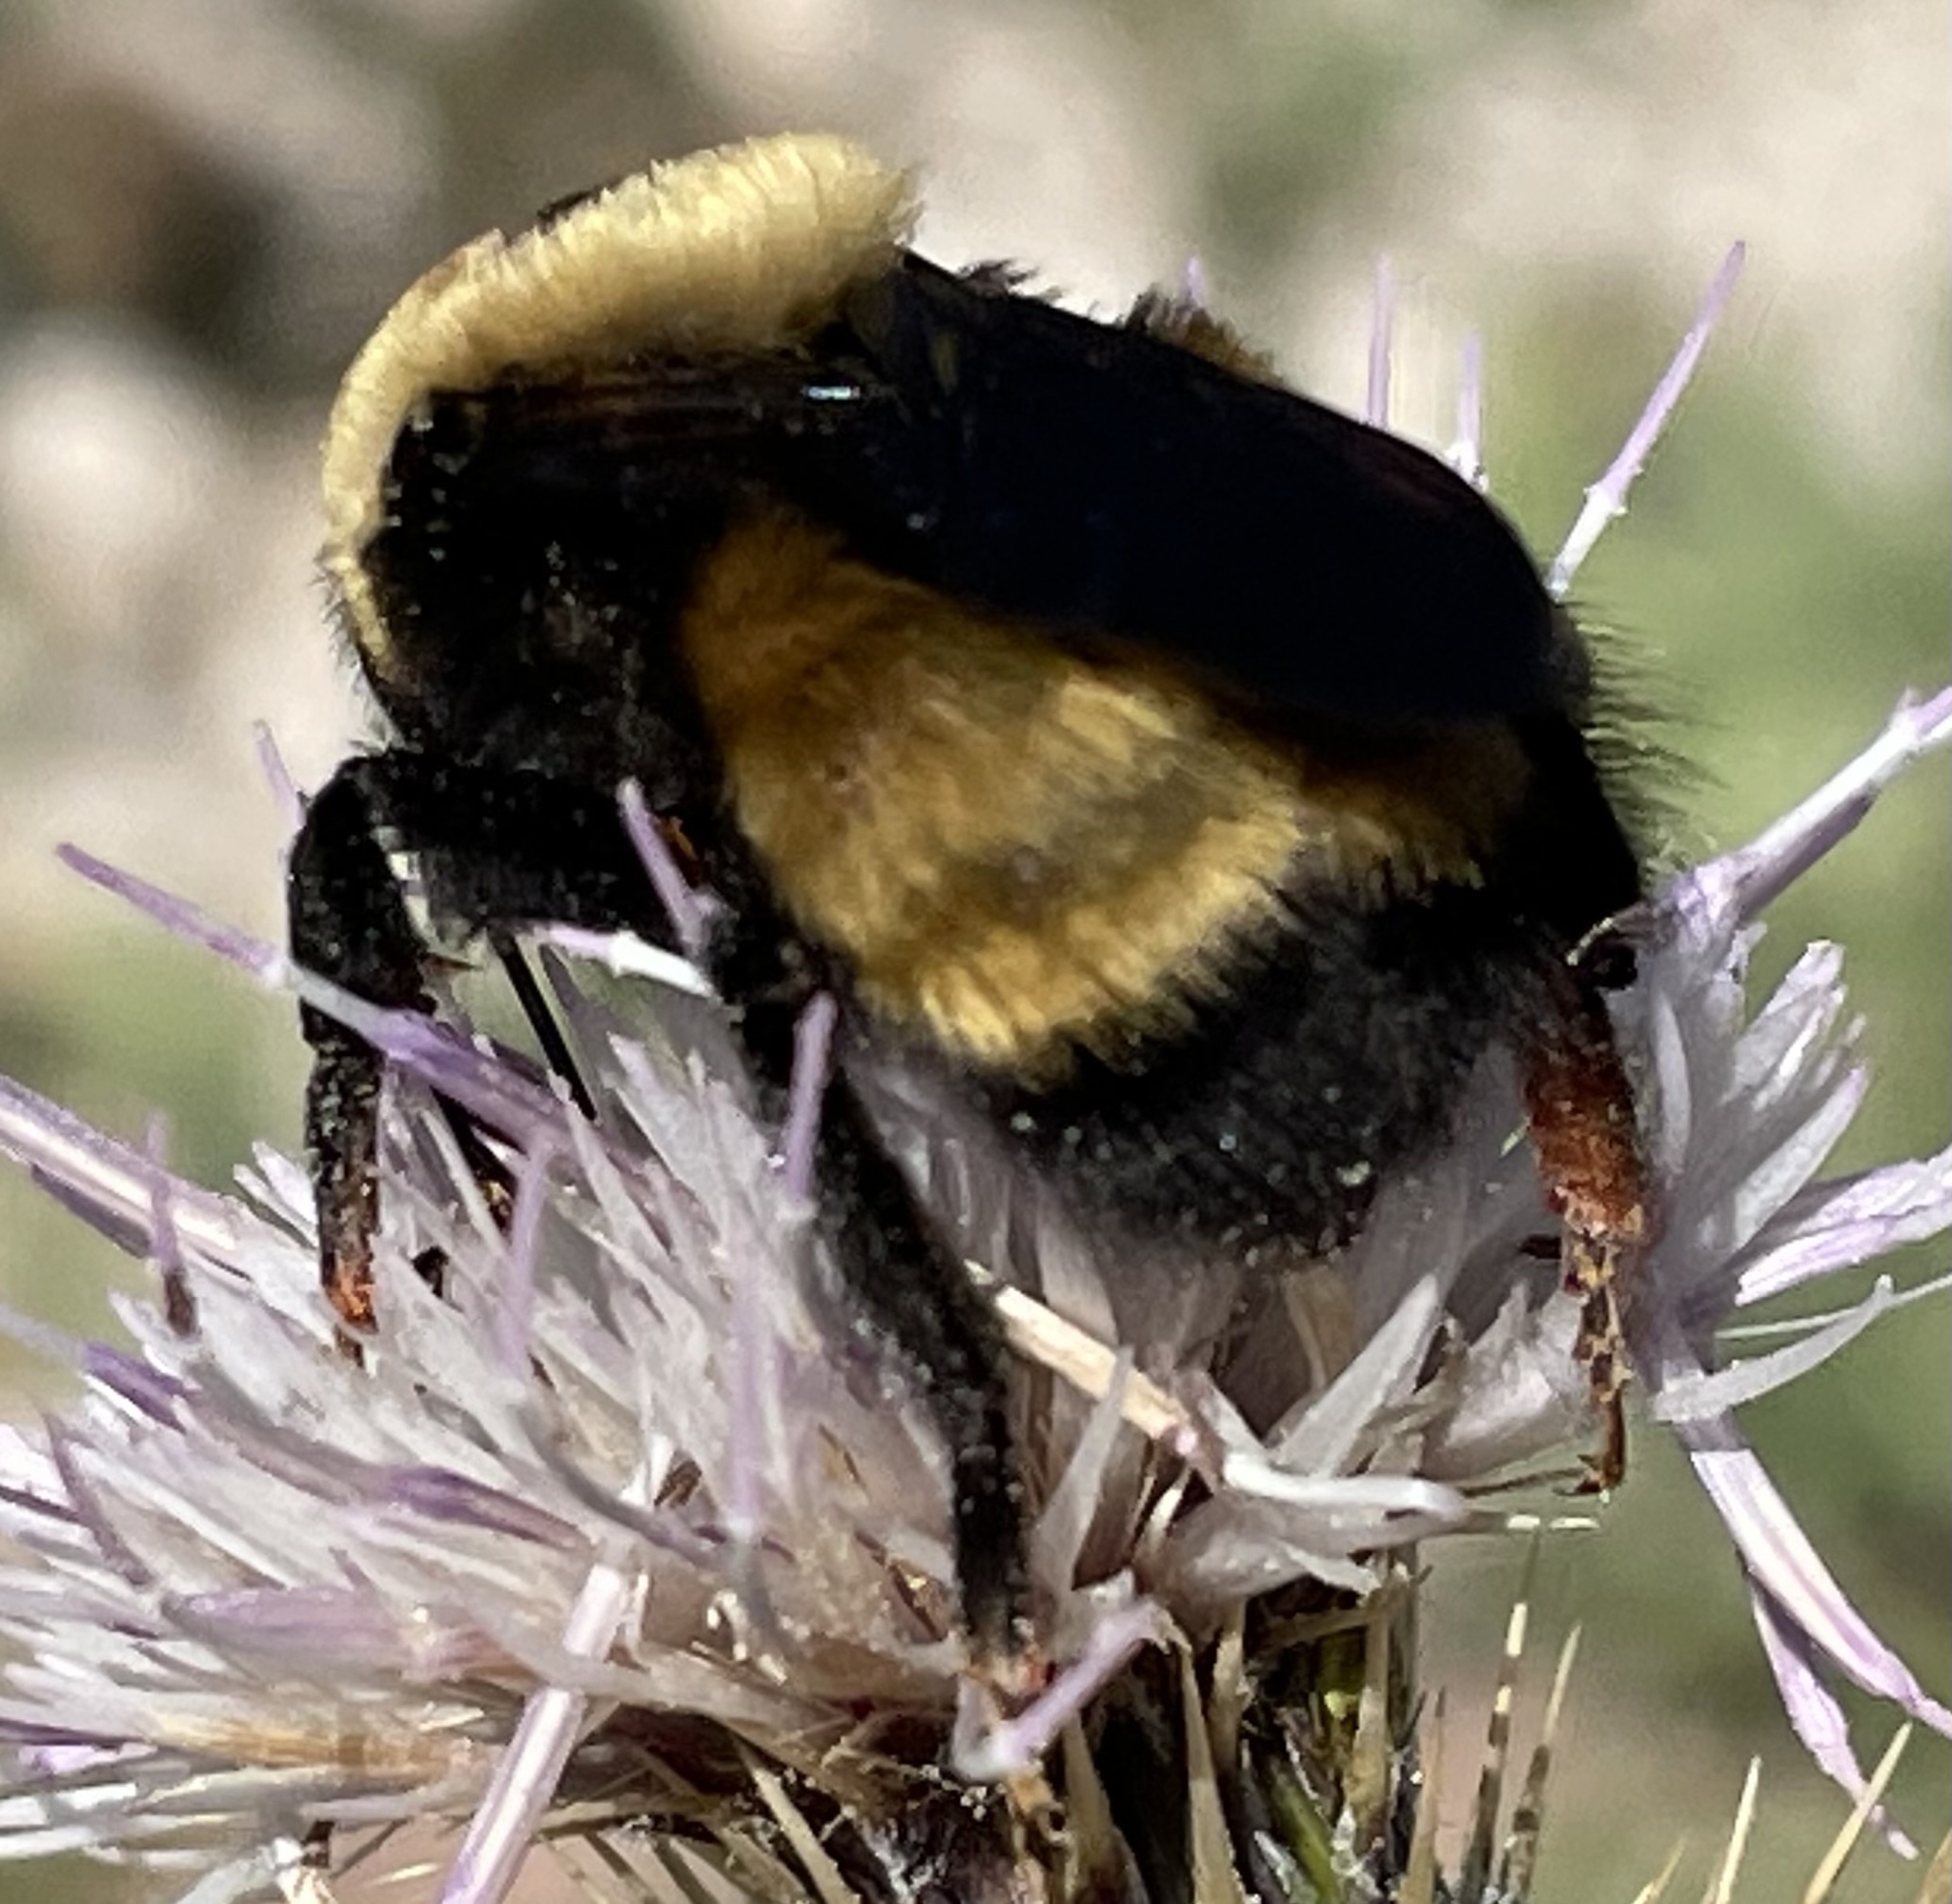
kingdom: Animalia
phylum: Arthropoda
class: Insecta
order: Hymenoptera
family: Apidae
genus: Bombus
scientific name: Bombus nevadensis
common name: Nevada bumble bee
